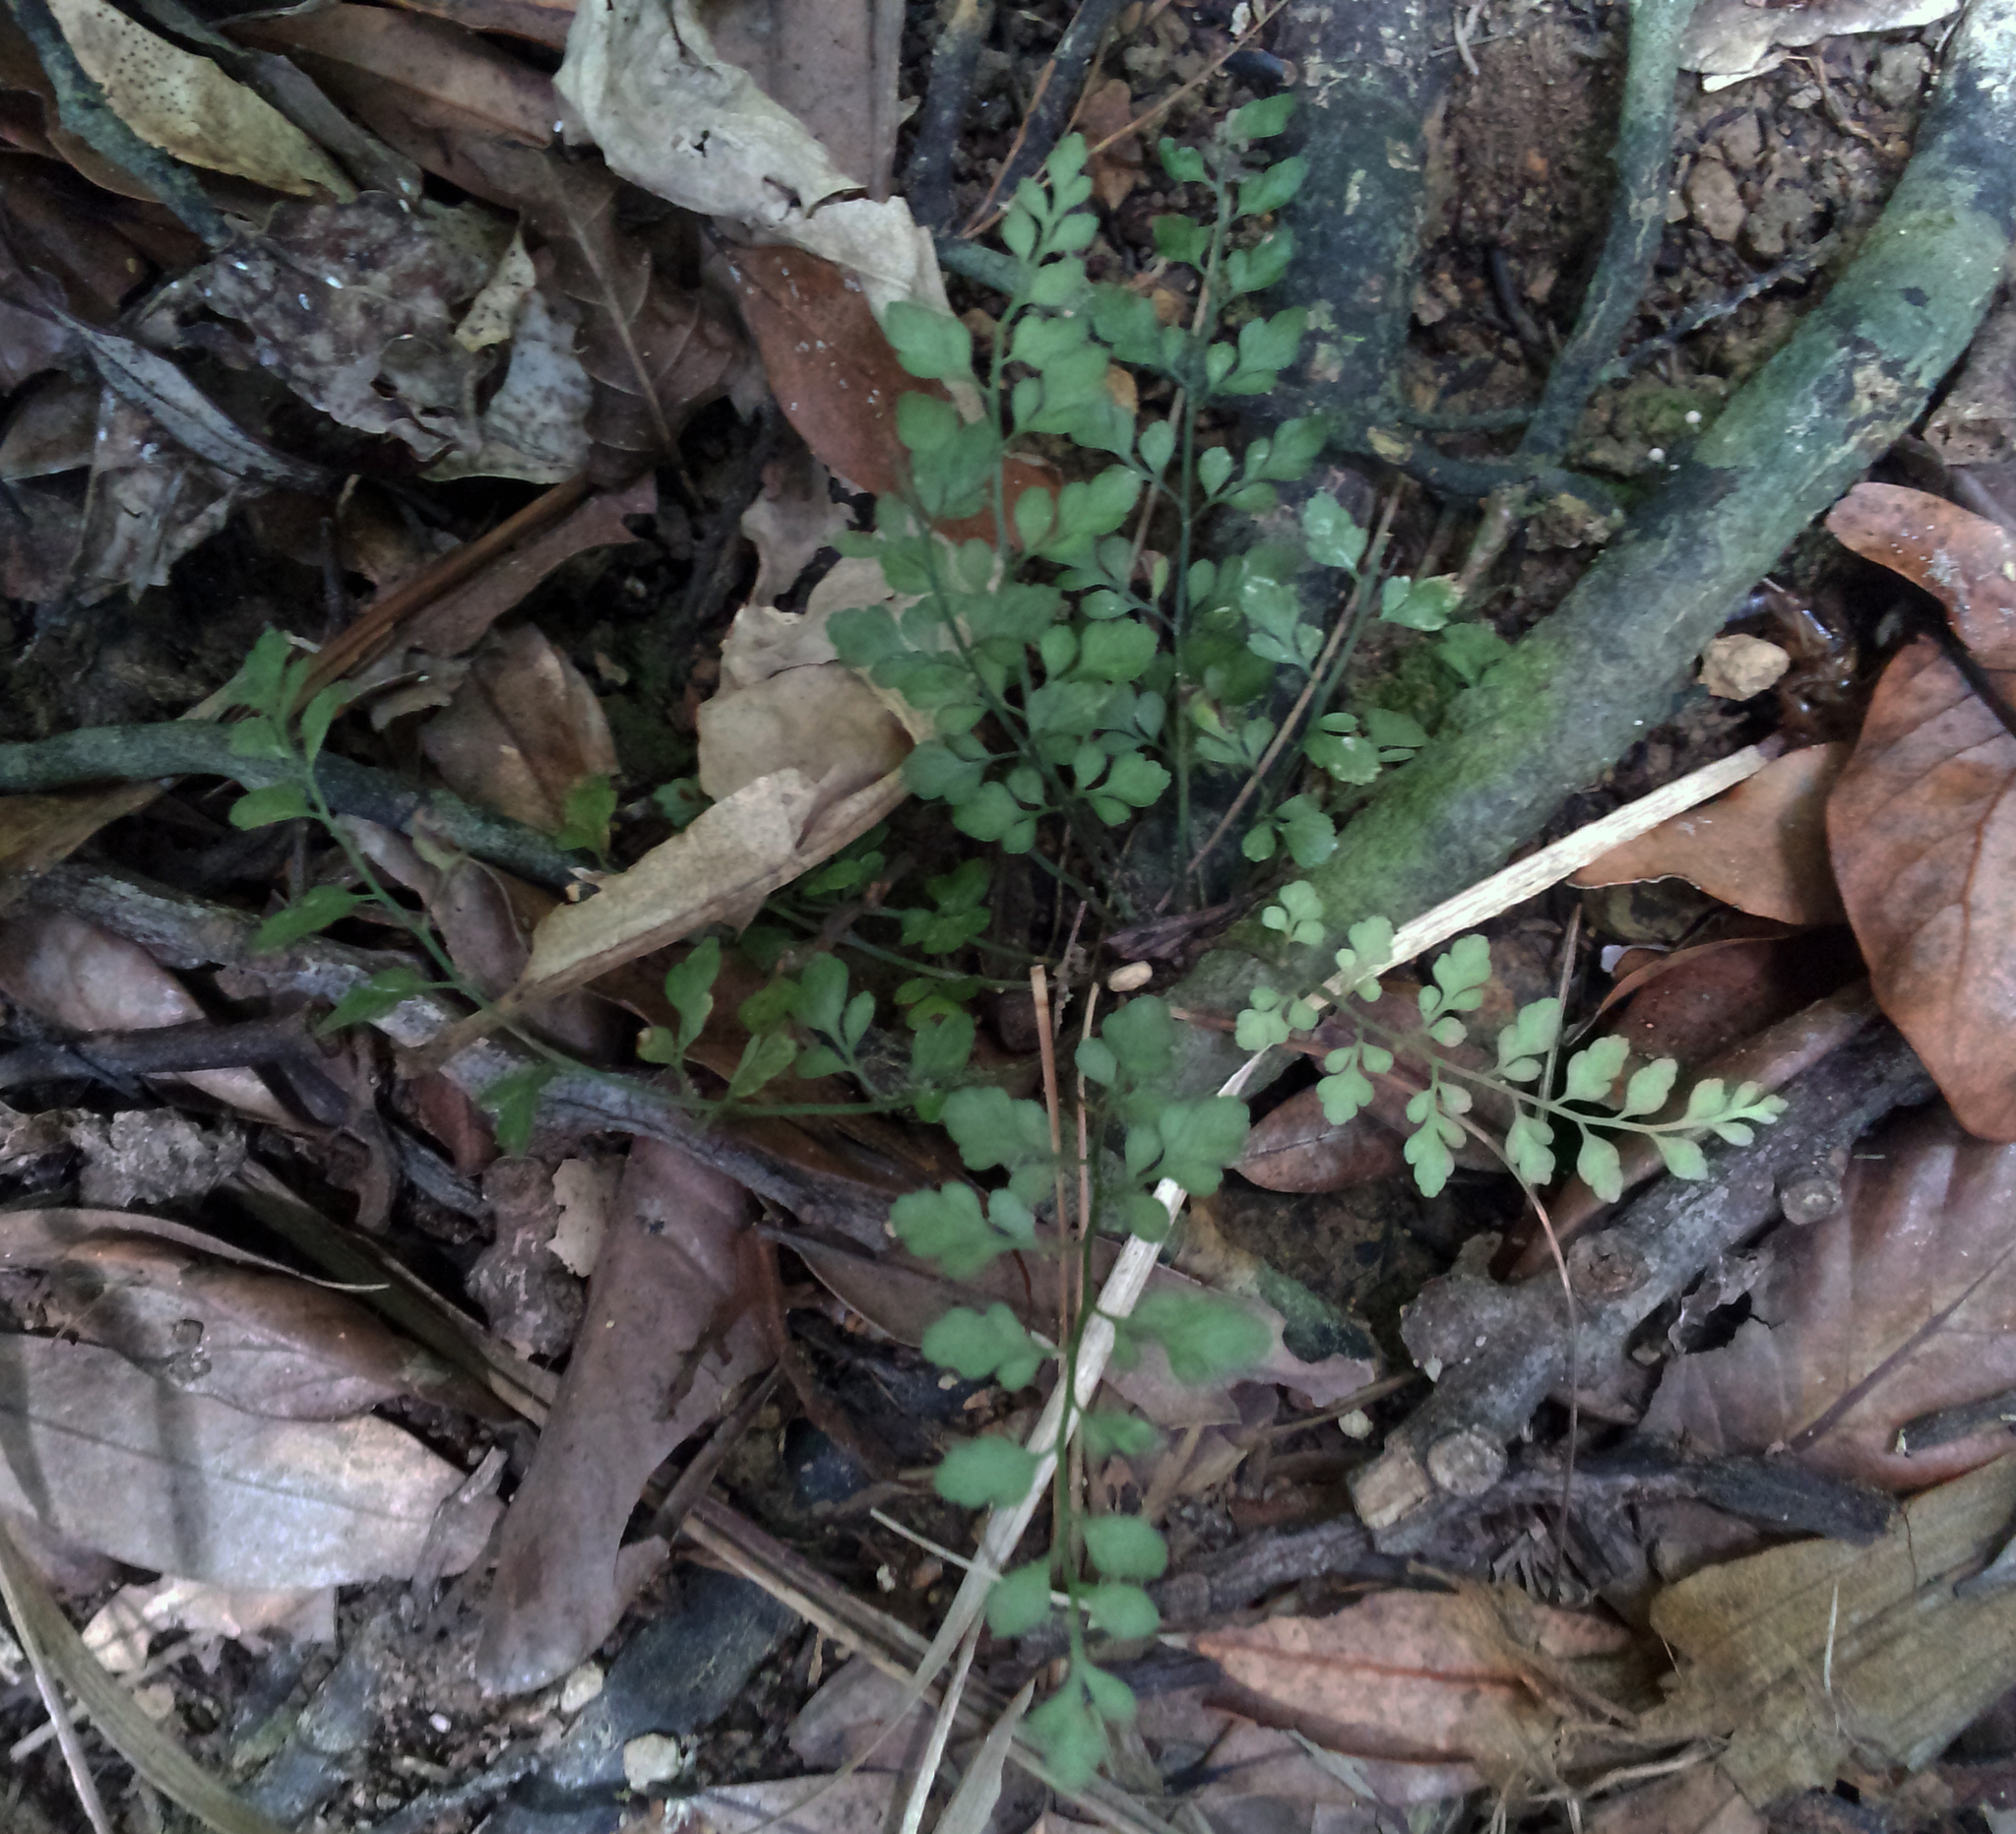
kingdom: Plantae
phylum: Tracheophyta
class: Polypodiopsida
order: Polypodiales
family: Aspleniaceae
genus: Asplenium
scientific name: Asplenium hookerianum
